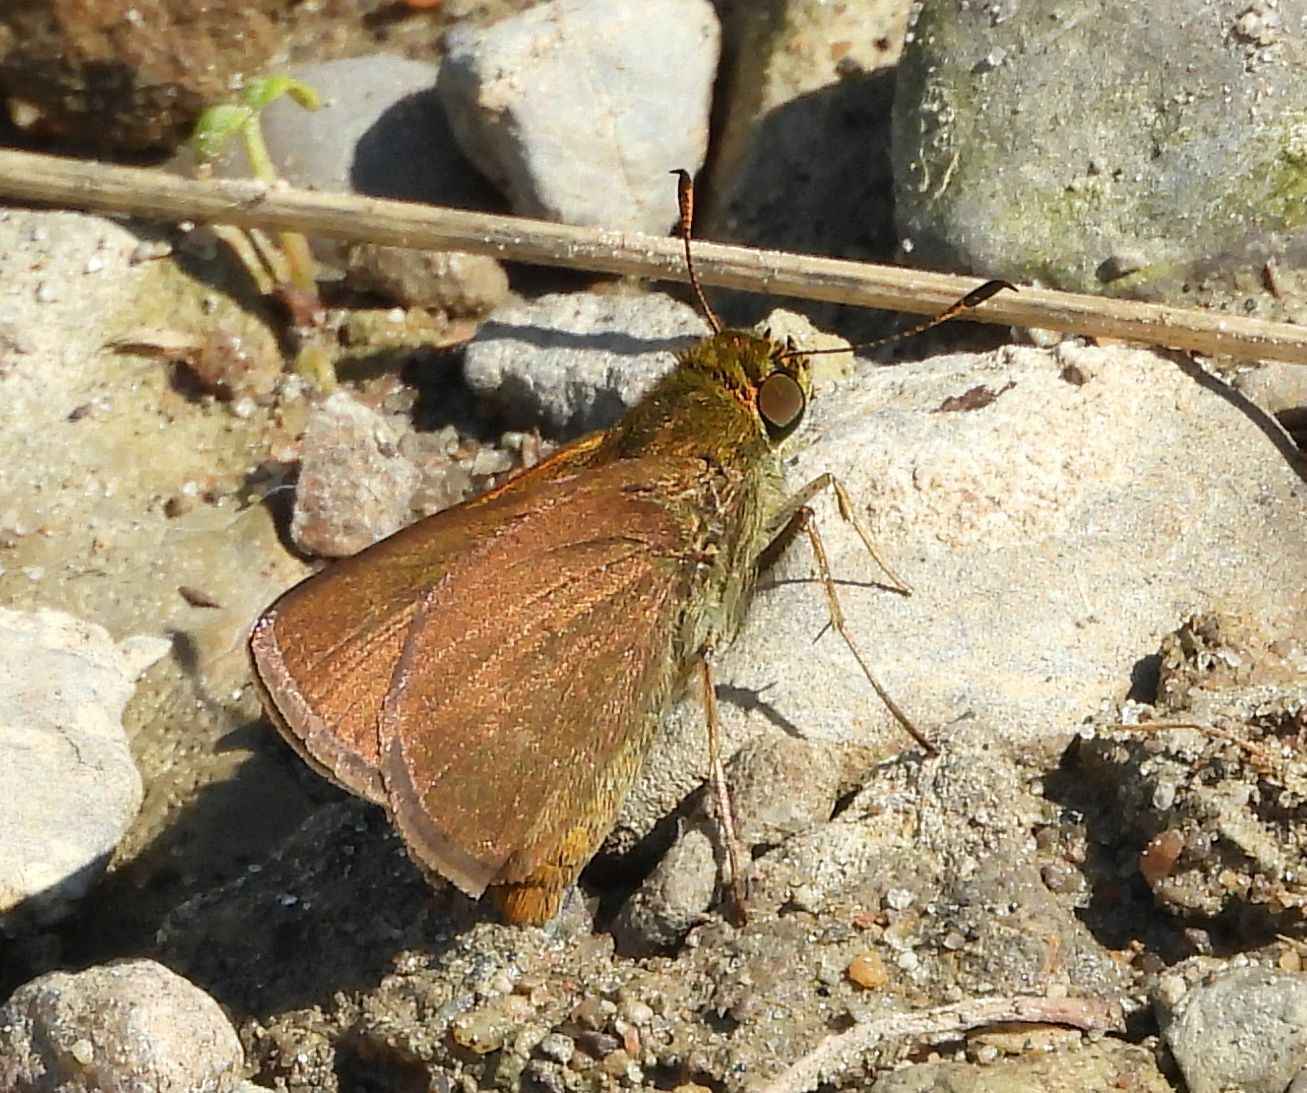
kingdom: Animalia
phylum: Arthropoda
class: Insecta
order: Lepidoptera
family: Hesperiidae
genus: Euphyes
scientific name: Euphyes vestris
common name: Dun skipper
